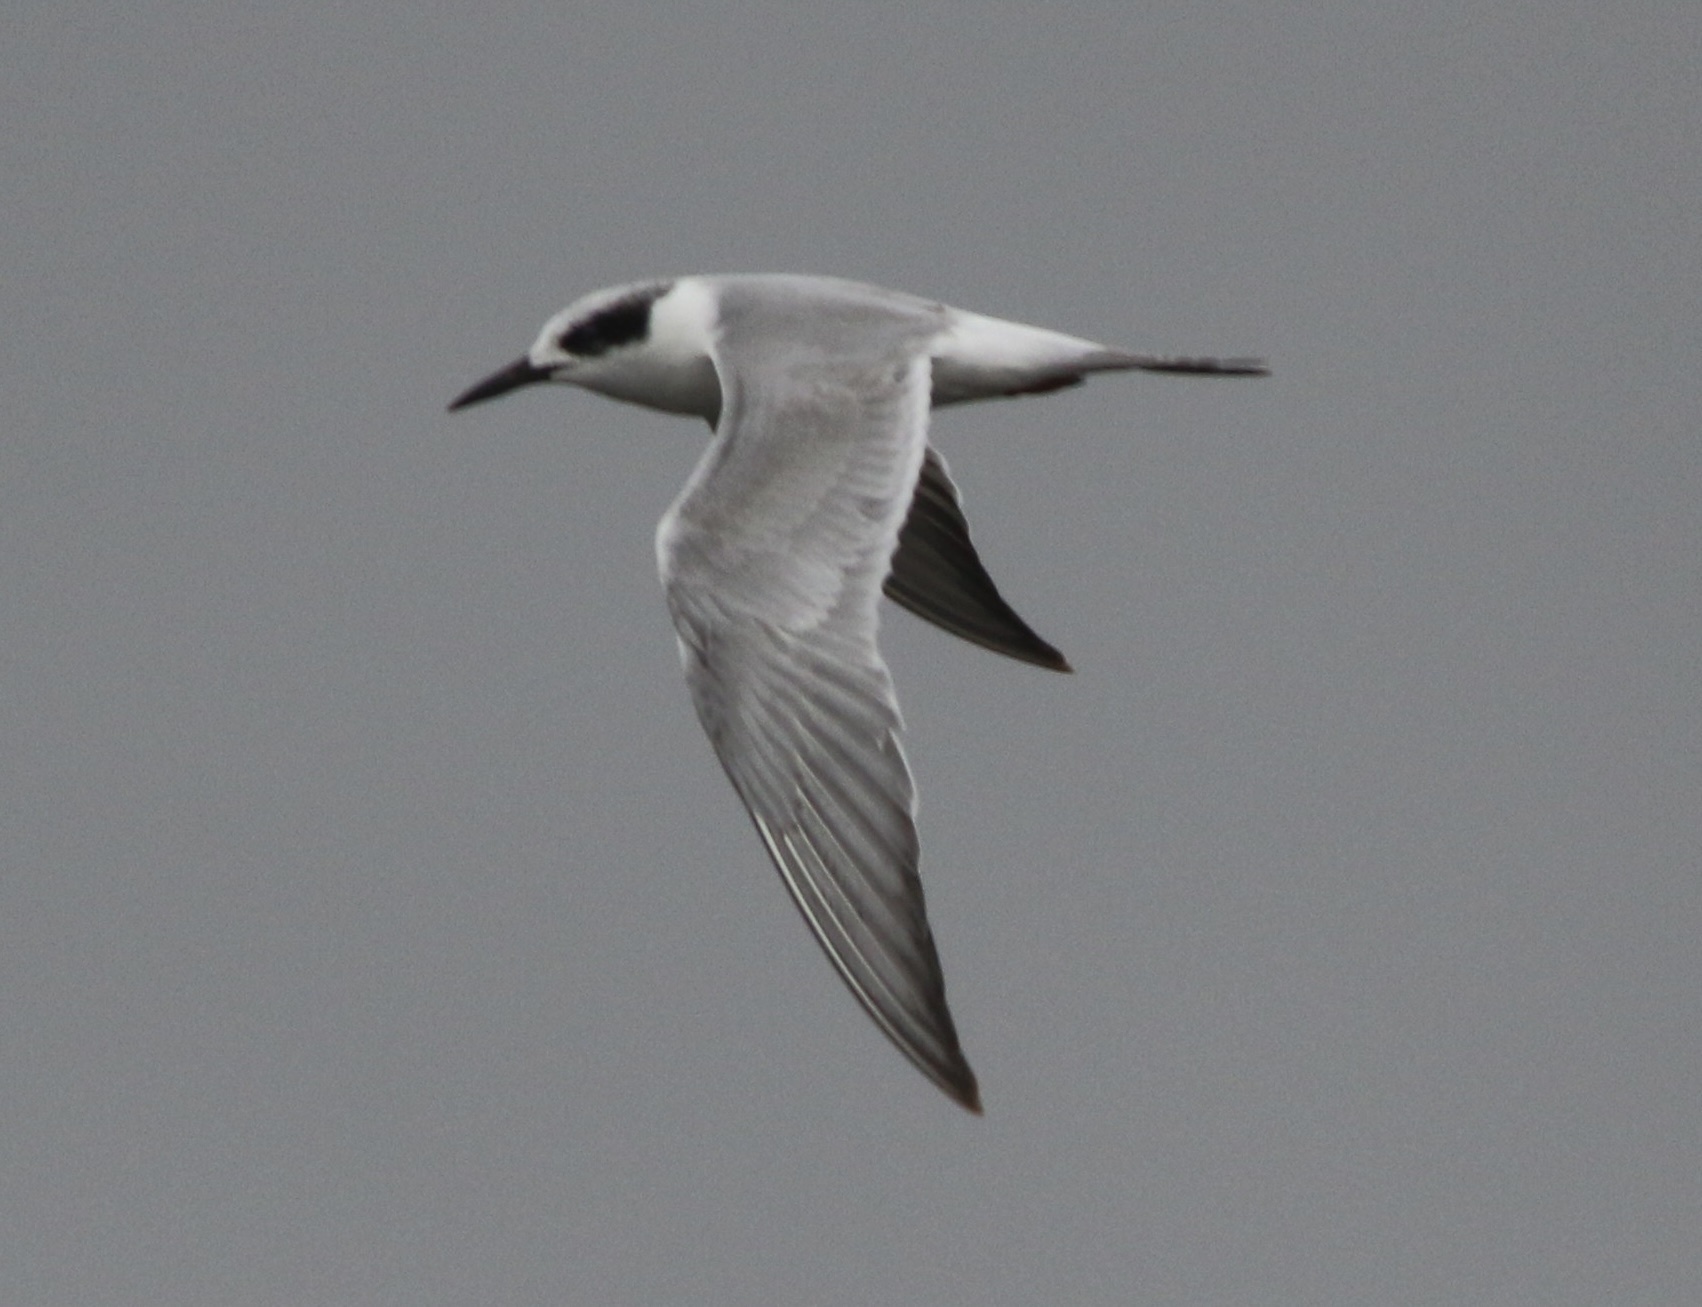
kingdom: Animalia
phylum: Chordata
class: Aves
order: Charadriiformes
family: Laridae
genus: Sterna
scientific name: Sterna forsteri
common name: Forster's tern
